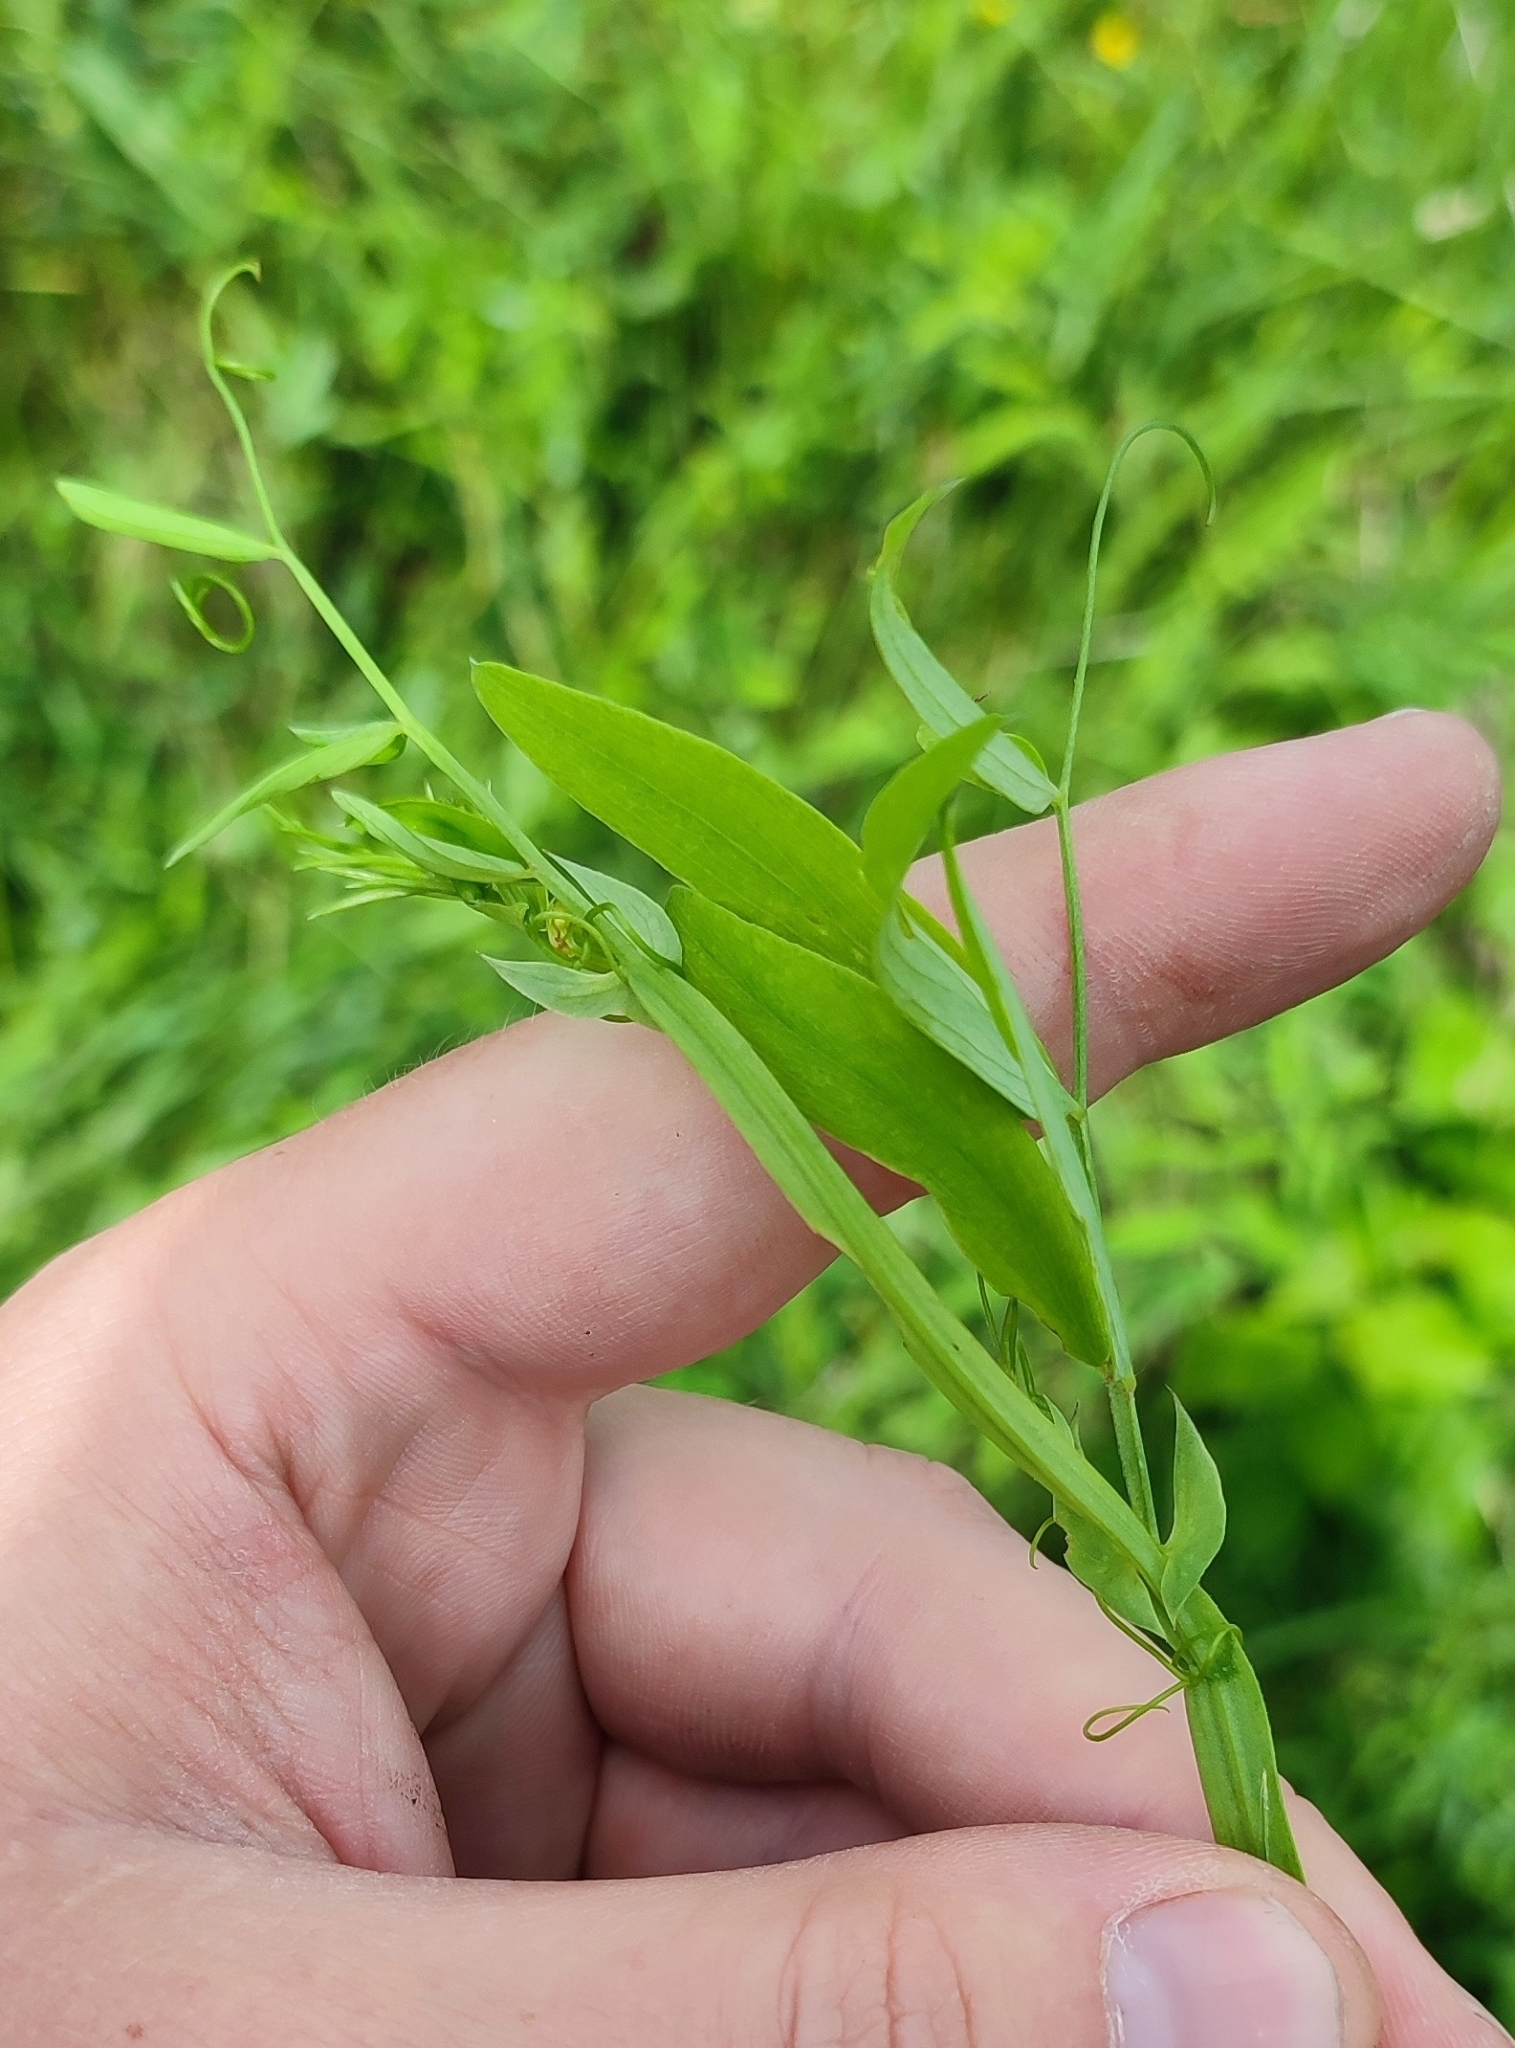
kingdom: Plantae
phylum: Tracheophyta
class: Magnoliopsida
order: Fabales
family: Fabaceae
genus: Lathyrus
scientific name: Lathyrus pratensis
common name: Meadow vetchling
